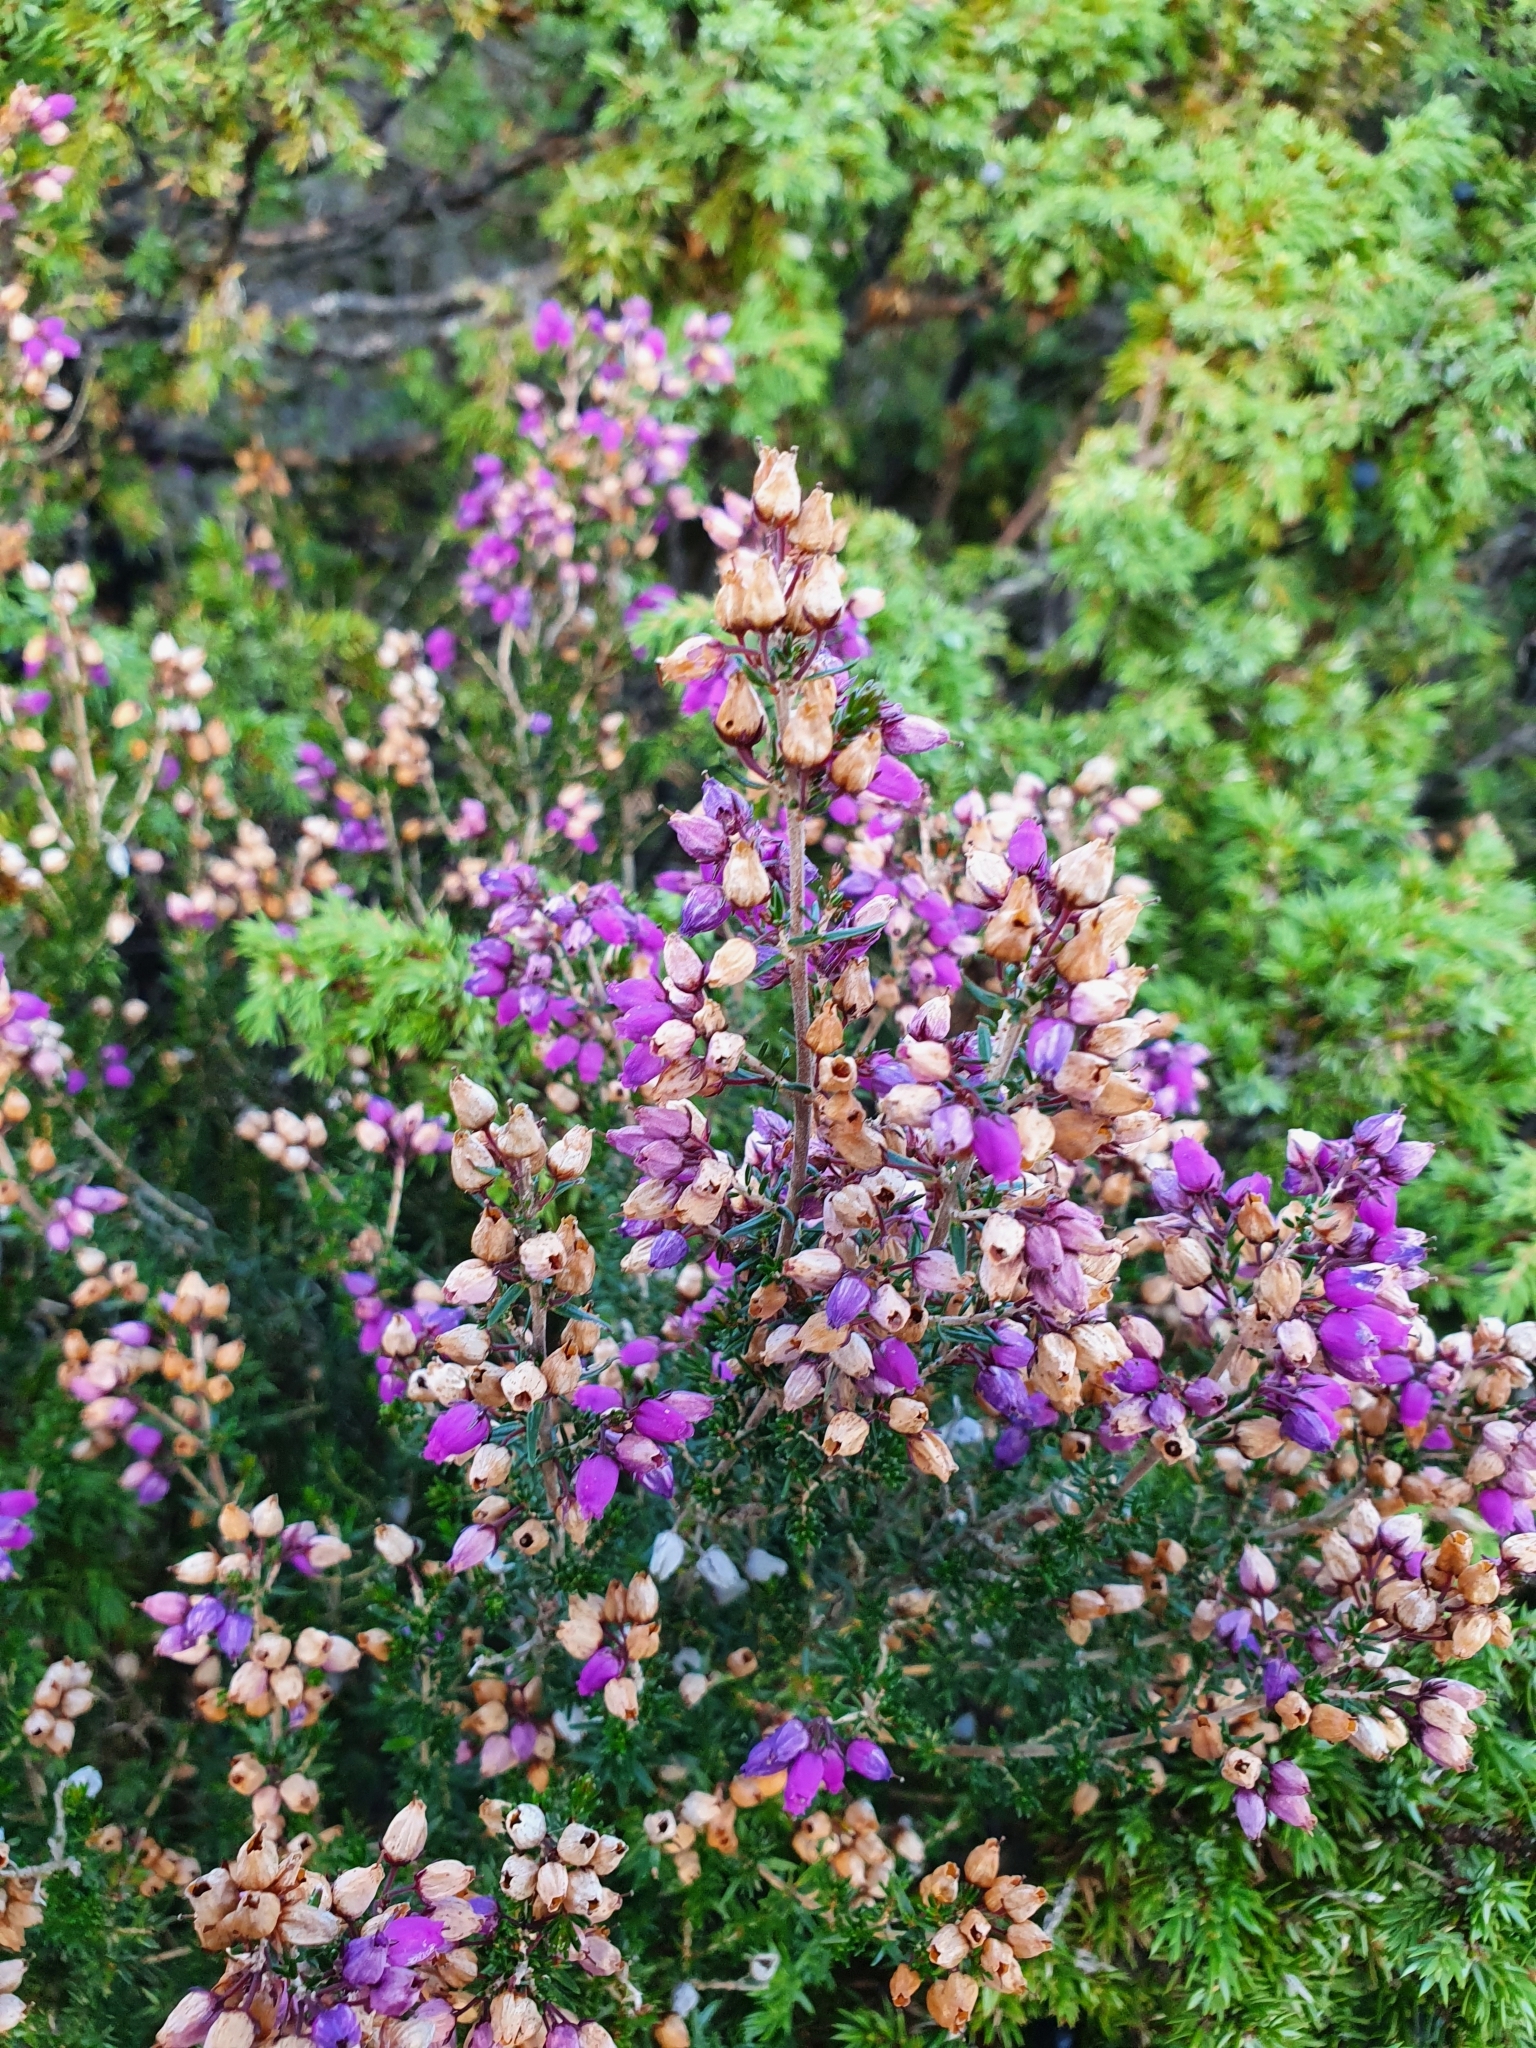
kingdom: Plantae
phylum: Tracheophyta
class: Magnoliopsida
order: Ericales
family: Ericaceae
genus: Erica
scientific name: Erica cinerea
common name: Bell heather
